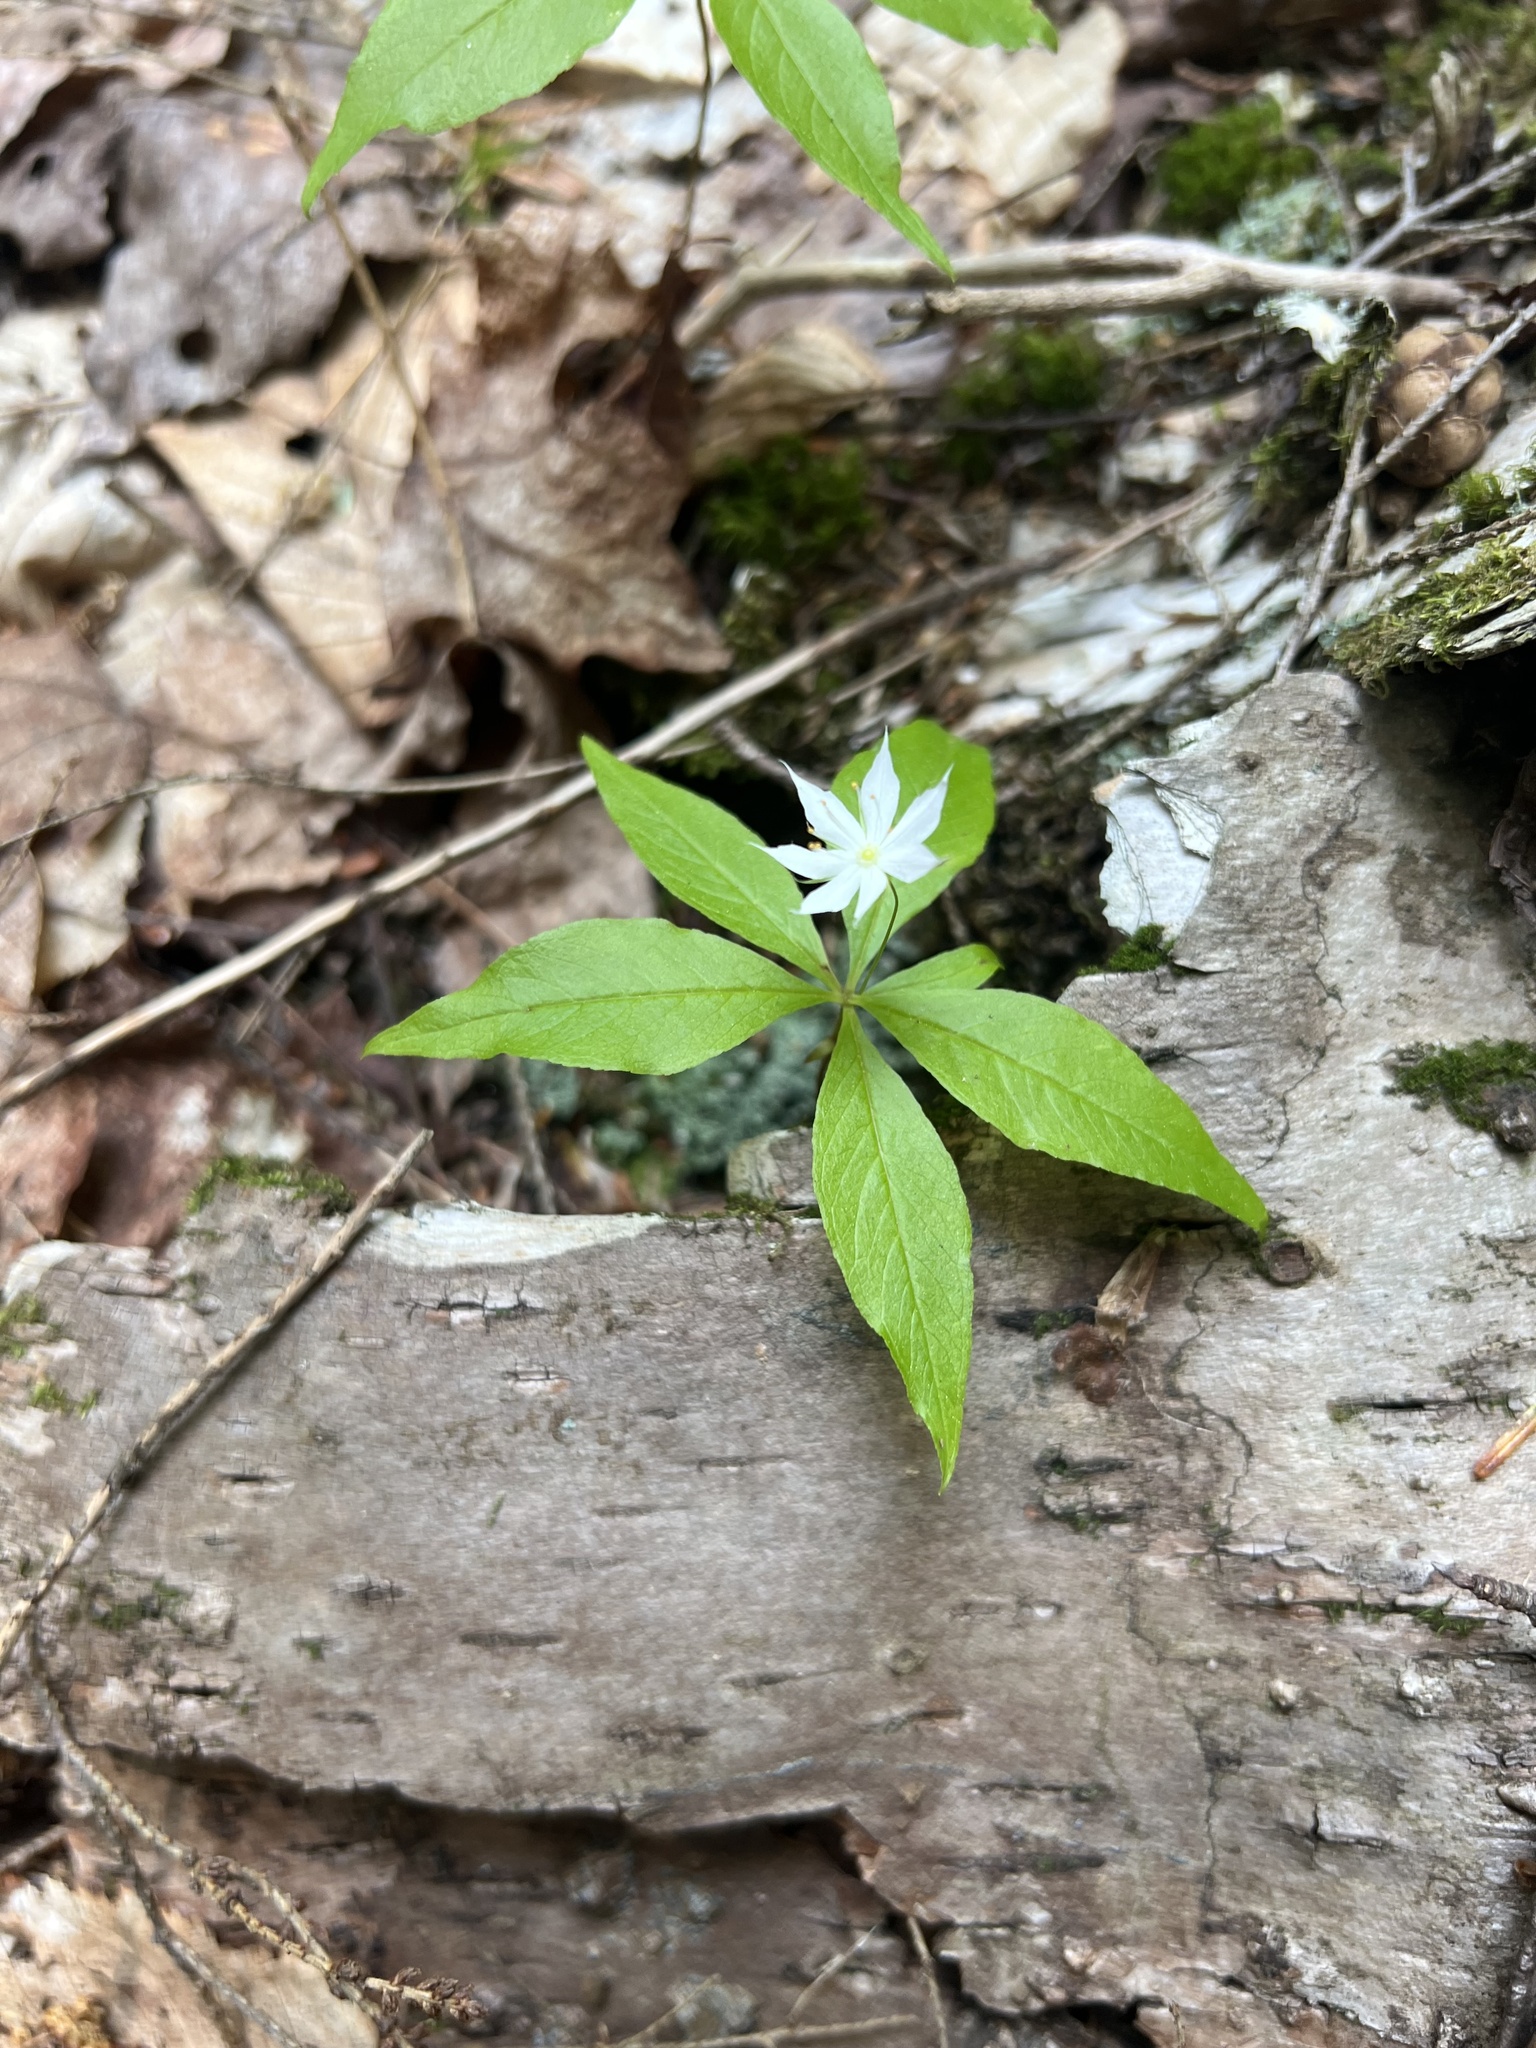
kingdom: Plantae
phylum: Tracheophyta
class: Magnoliopsida
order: Ericales
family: Primulaceae
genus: Lysimachia
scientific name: Lysimachia borealis
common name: American starflower
